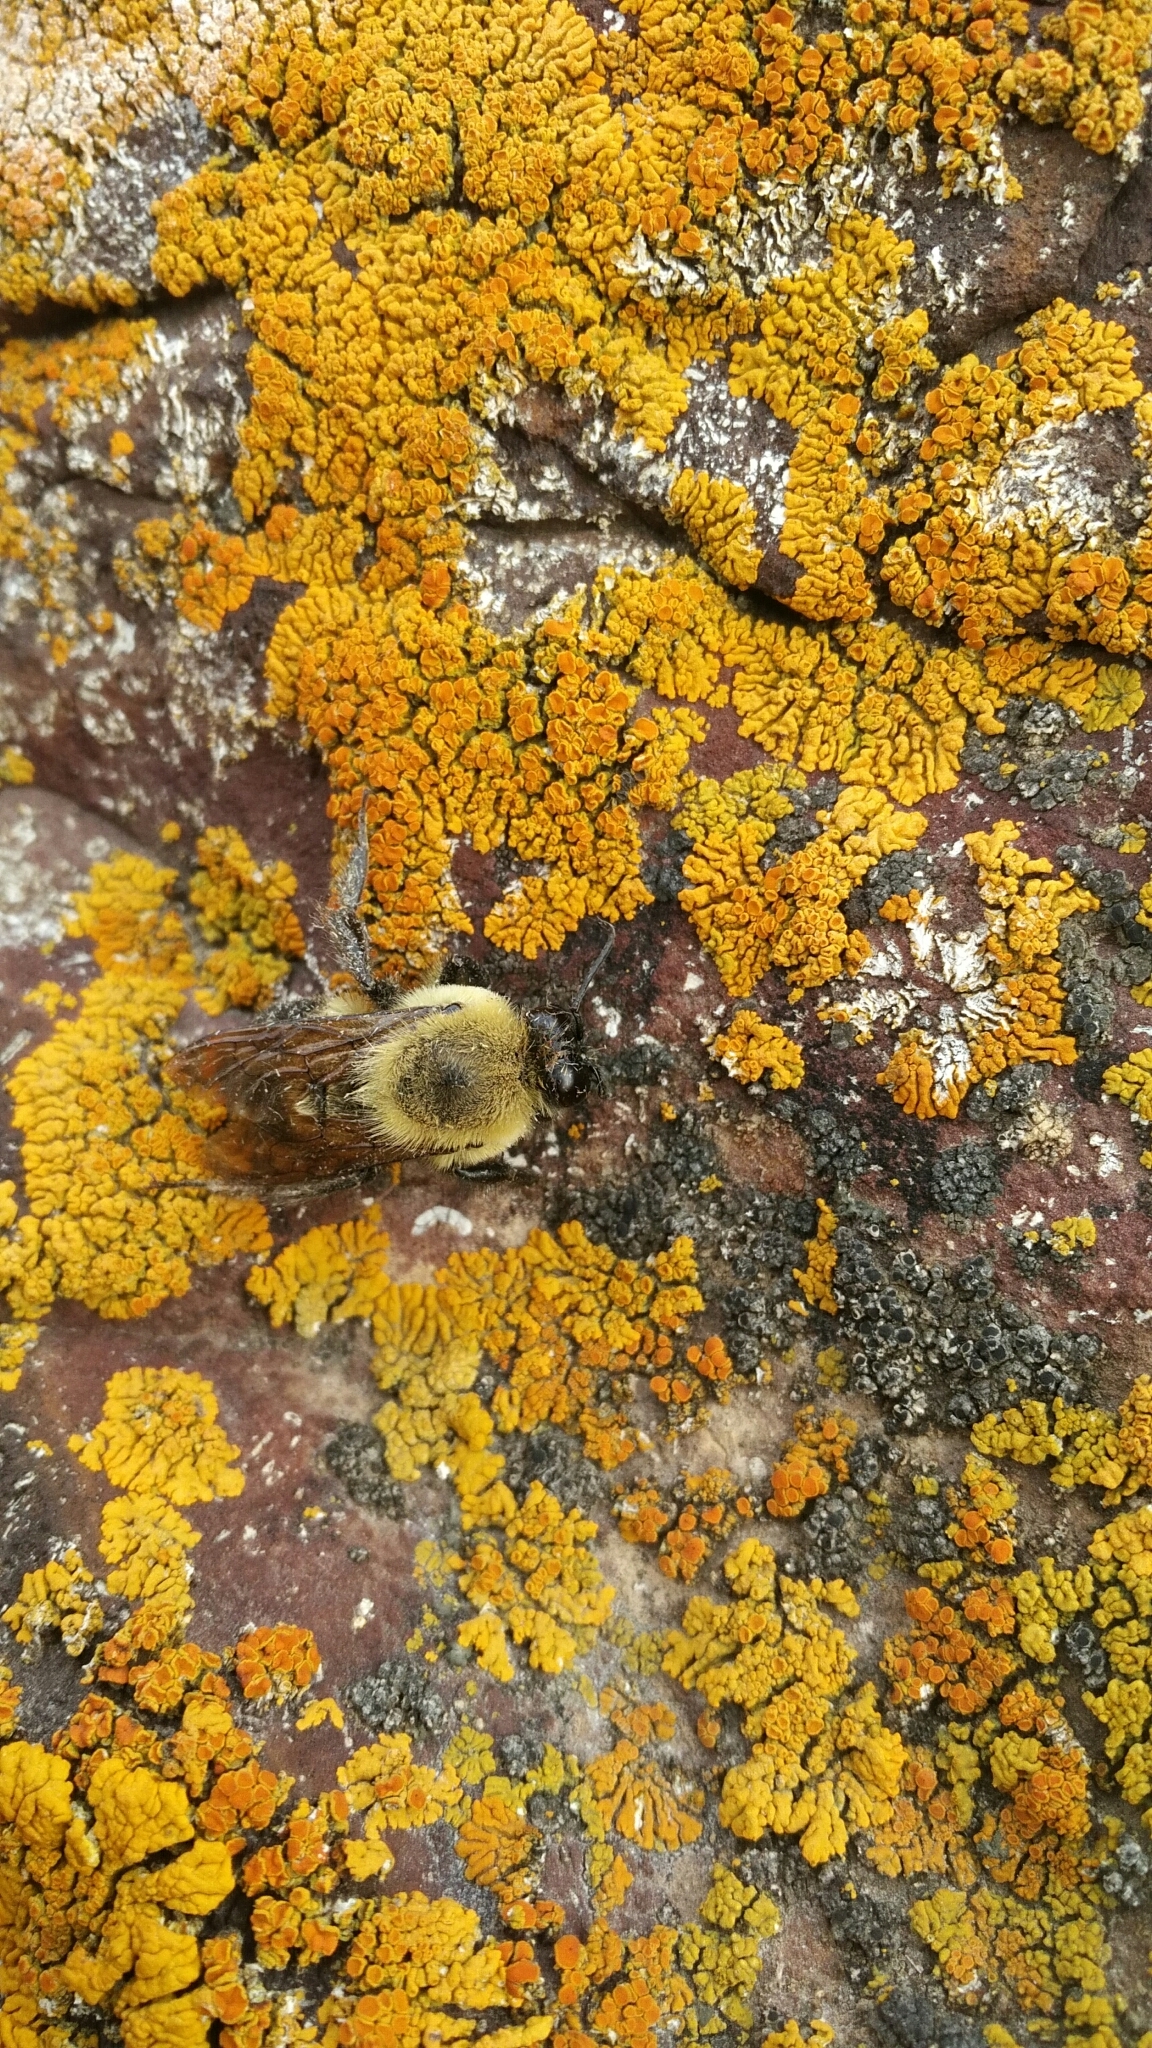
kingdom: Animalia
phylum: Arthropoda
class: Insecta
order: Hymenoptera
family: Apidae
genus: Bombus
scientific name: Bombus griseocollis
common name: Brown-belted bumble bee
